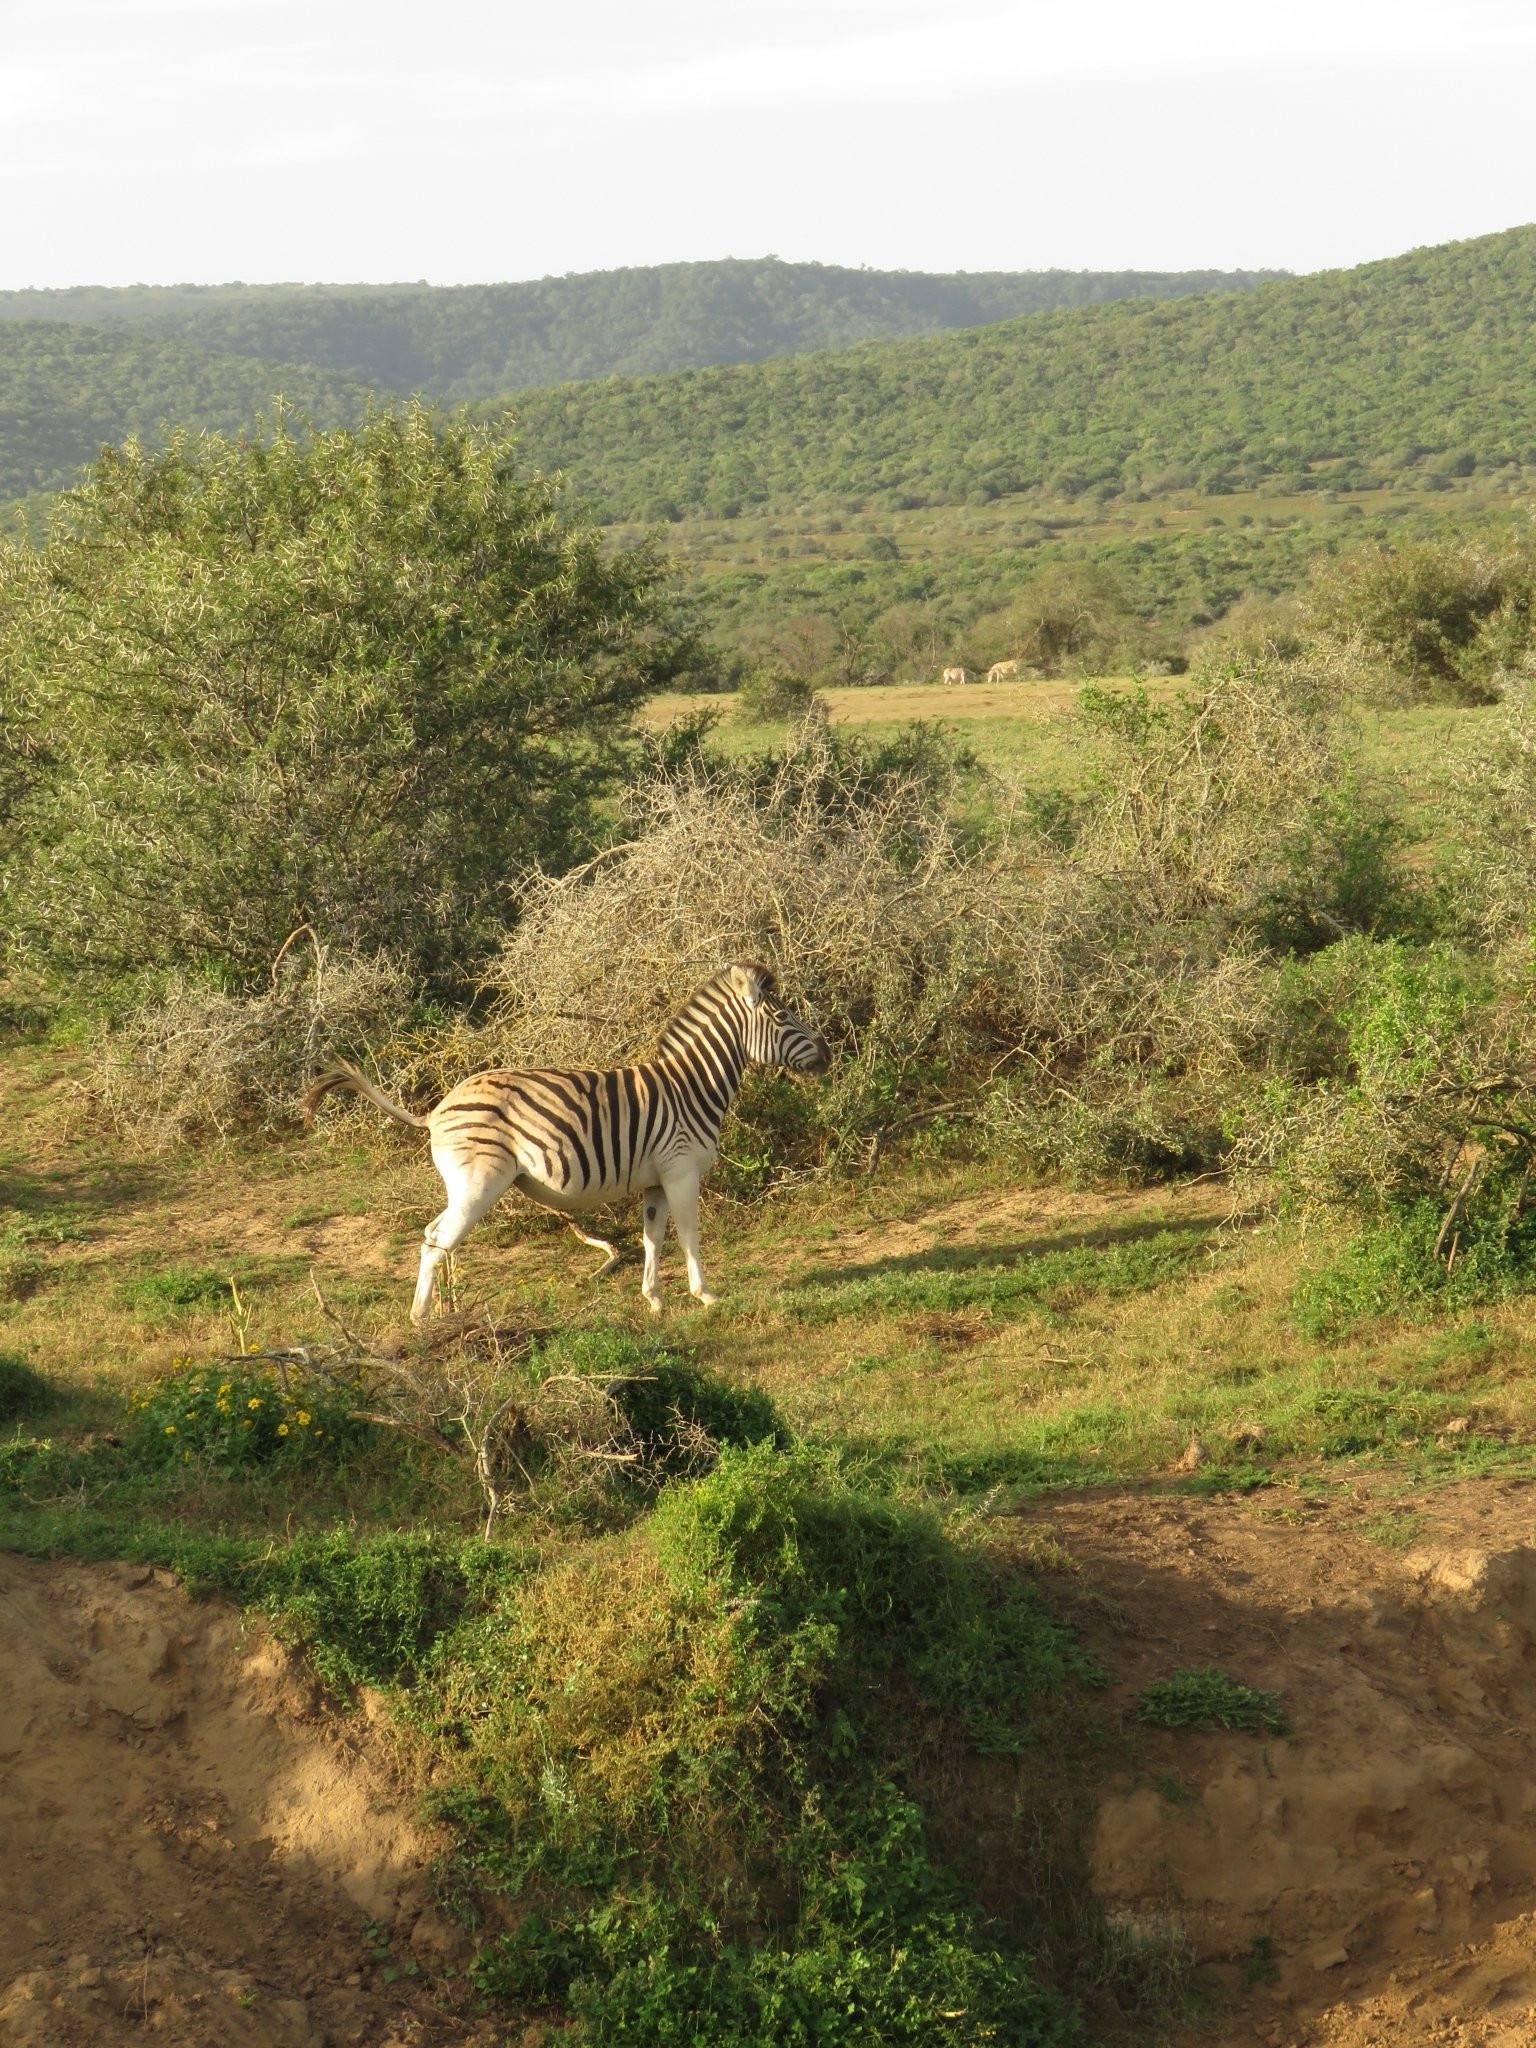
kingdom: Animalia
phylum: Chordata
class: Mammalia
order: Perissodactyla
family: Equidae
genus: Equus
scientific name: Equus quagga
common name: Plains zebra
